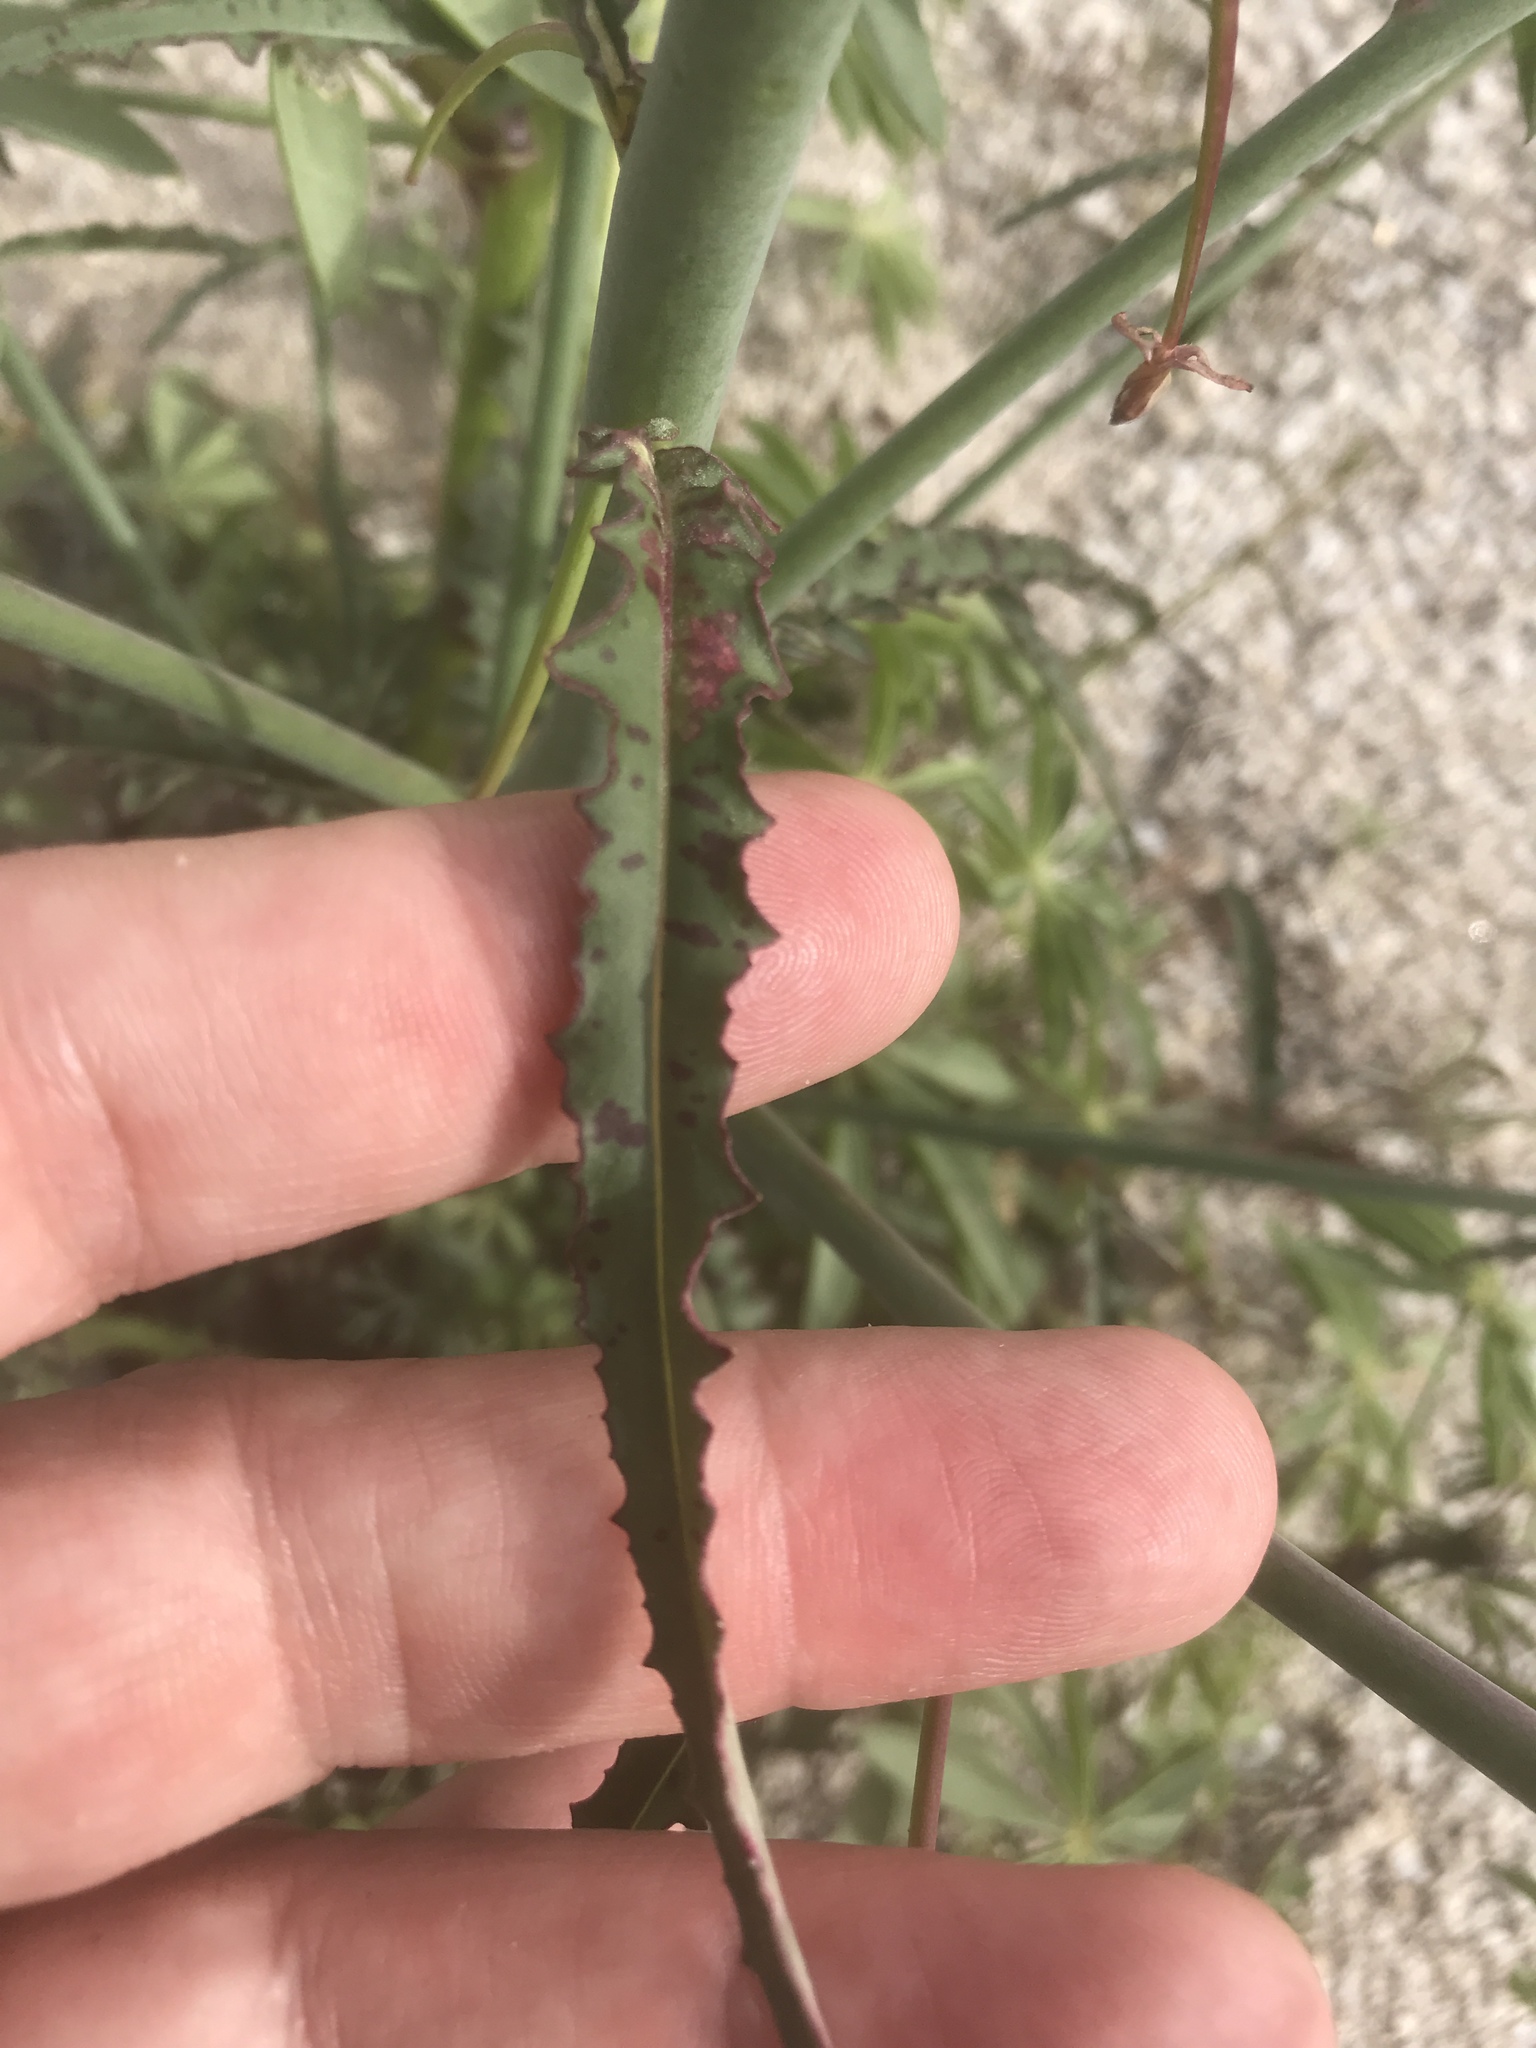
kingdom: Plantae
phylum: Tracheophyta
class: Magnoliopsida
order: Myrtales
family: Onagraceae
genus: Eulobus
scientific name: Eulobus californicus
